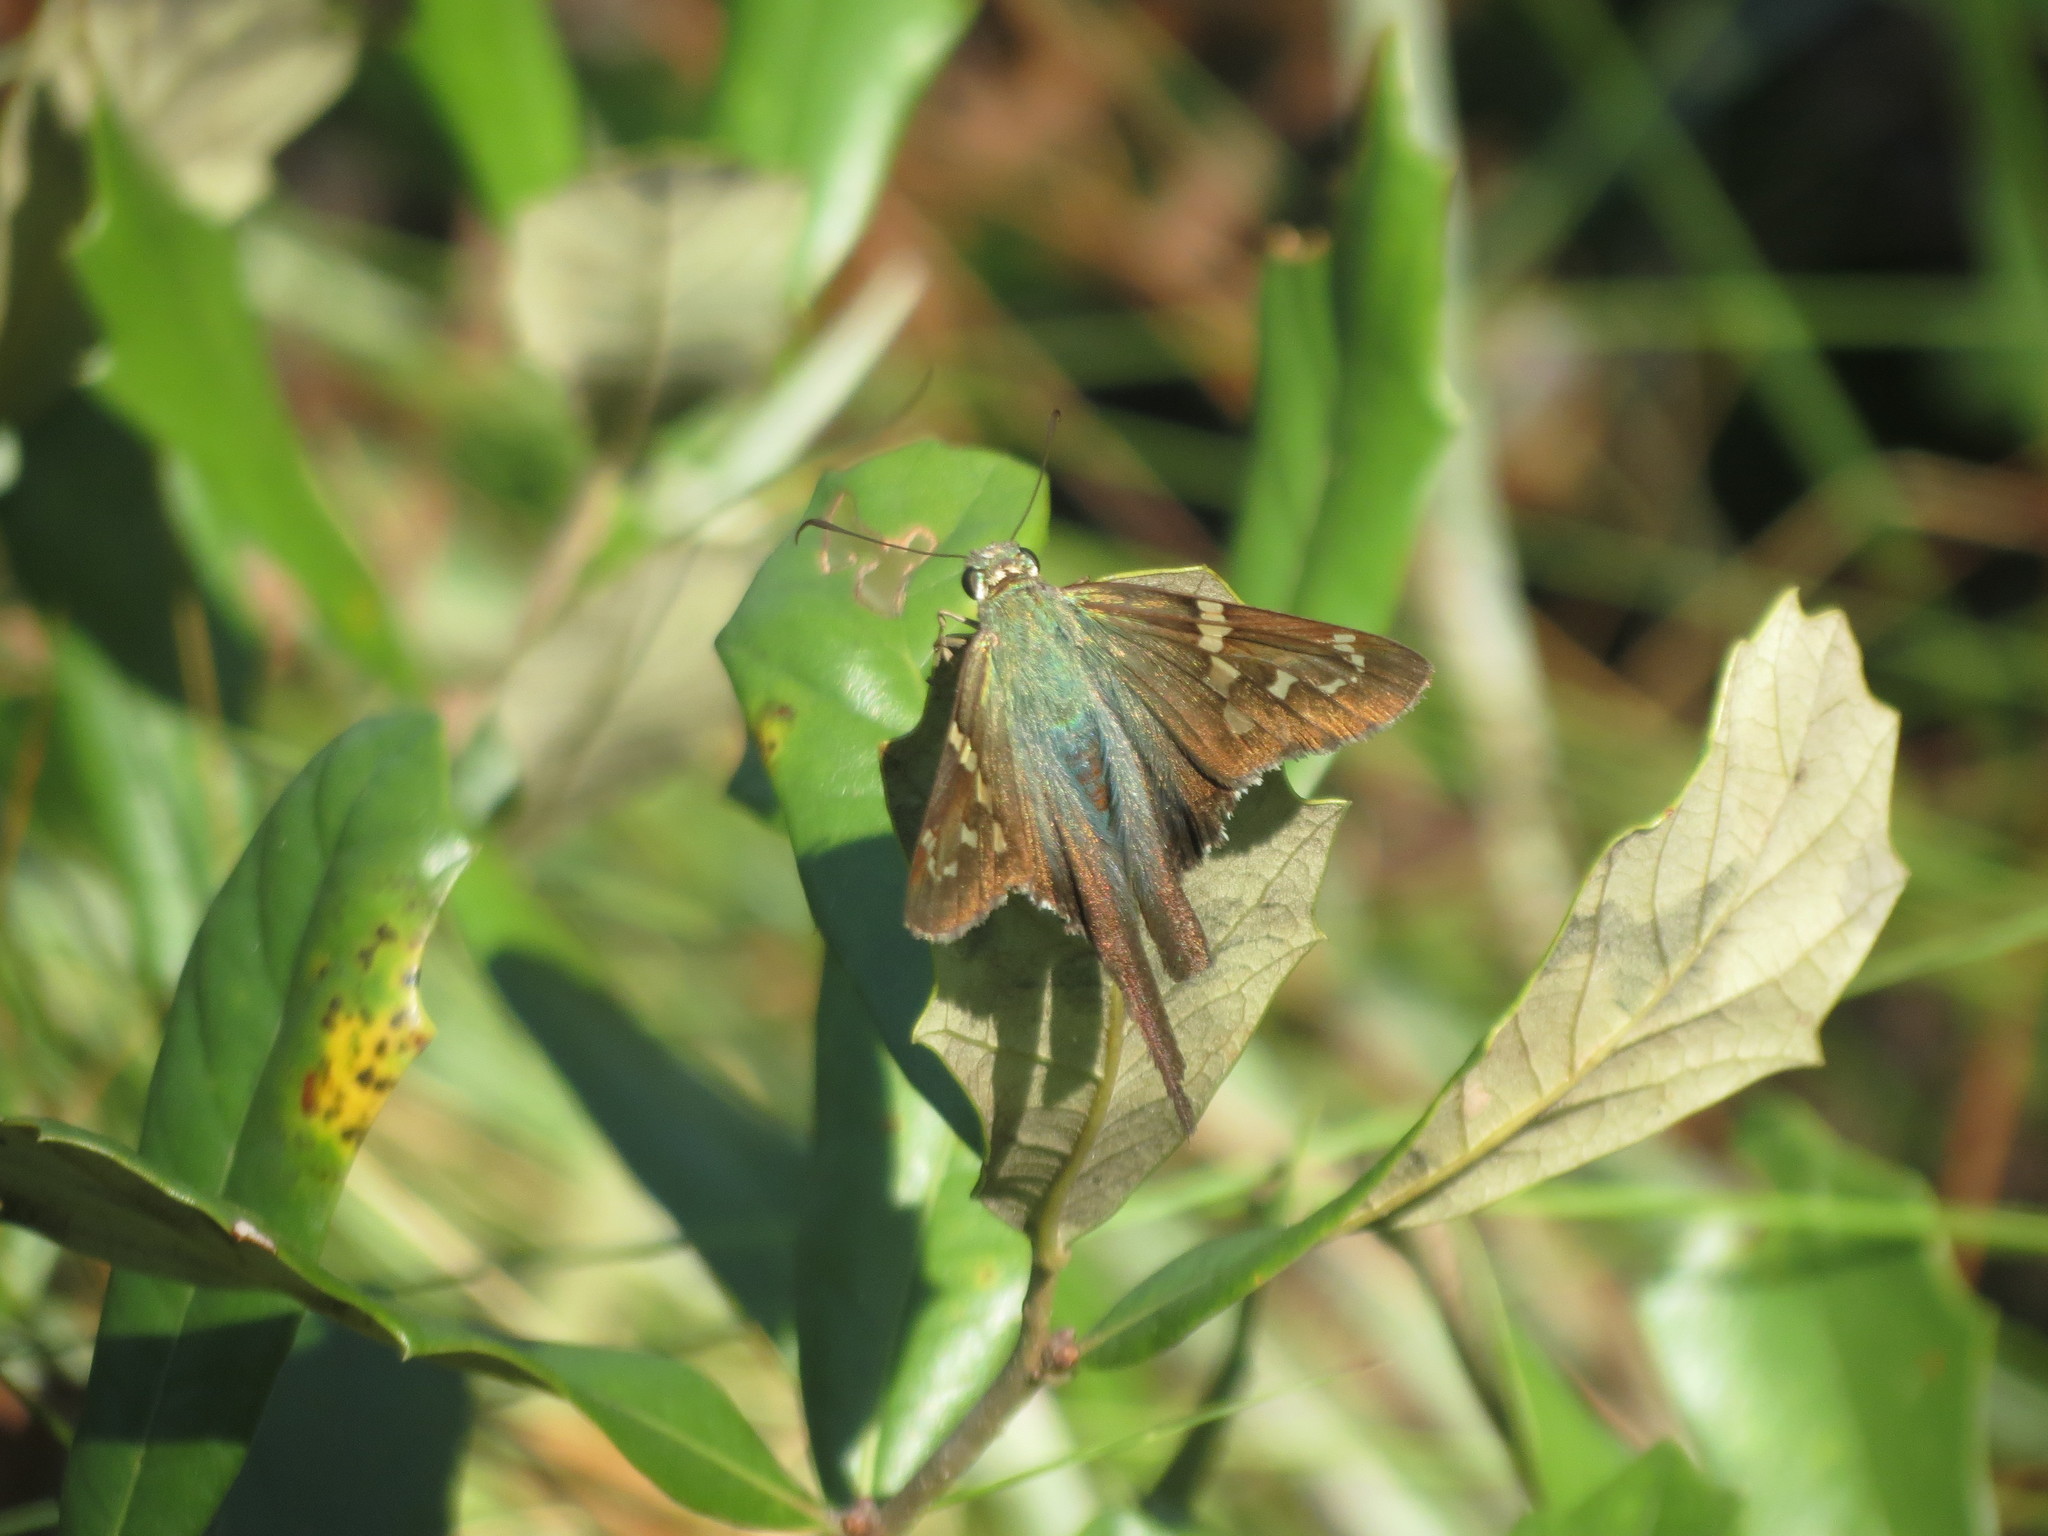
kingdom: Animalia
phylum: Arthropoda
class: Insecta
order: Lepidoptera
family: Hesperiidae
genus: Urbanus
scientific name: Urbanus proteus
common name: Long-tailed skipper
